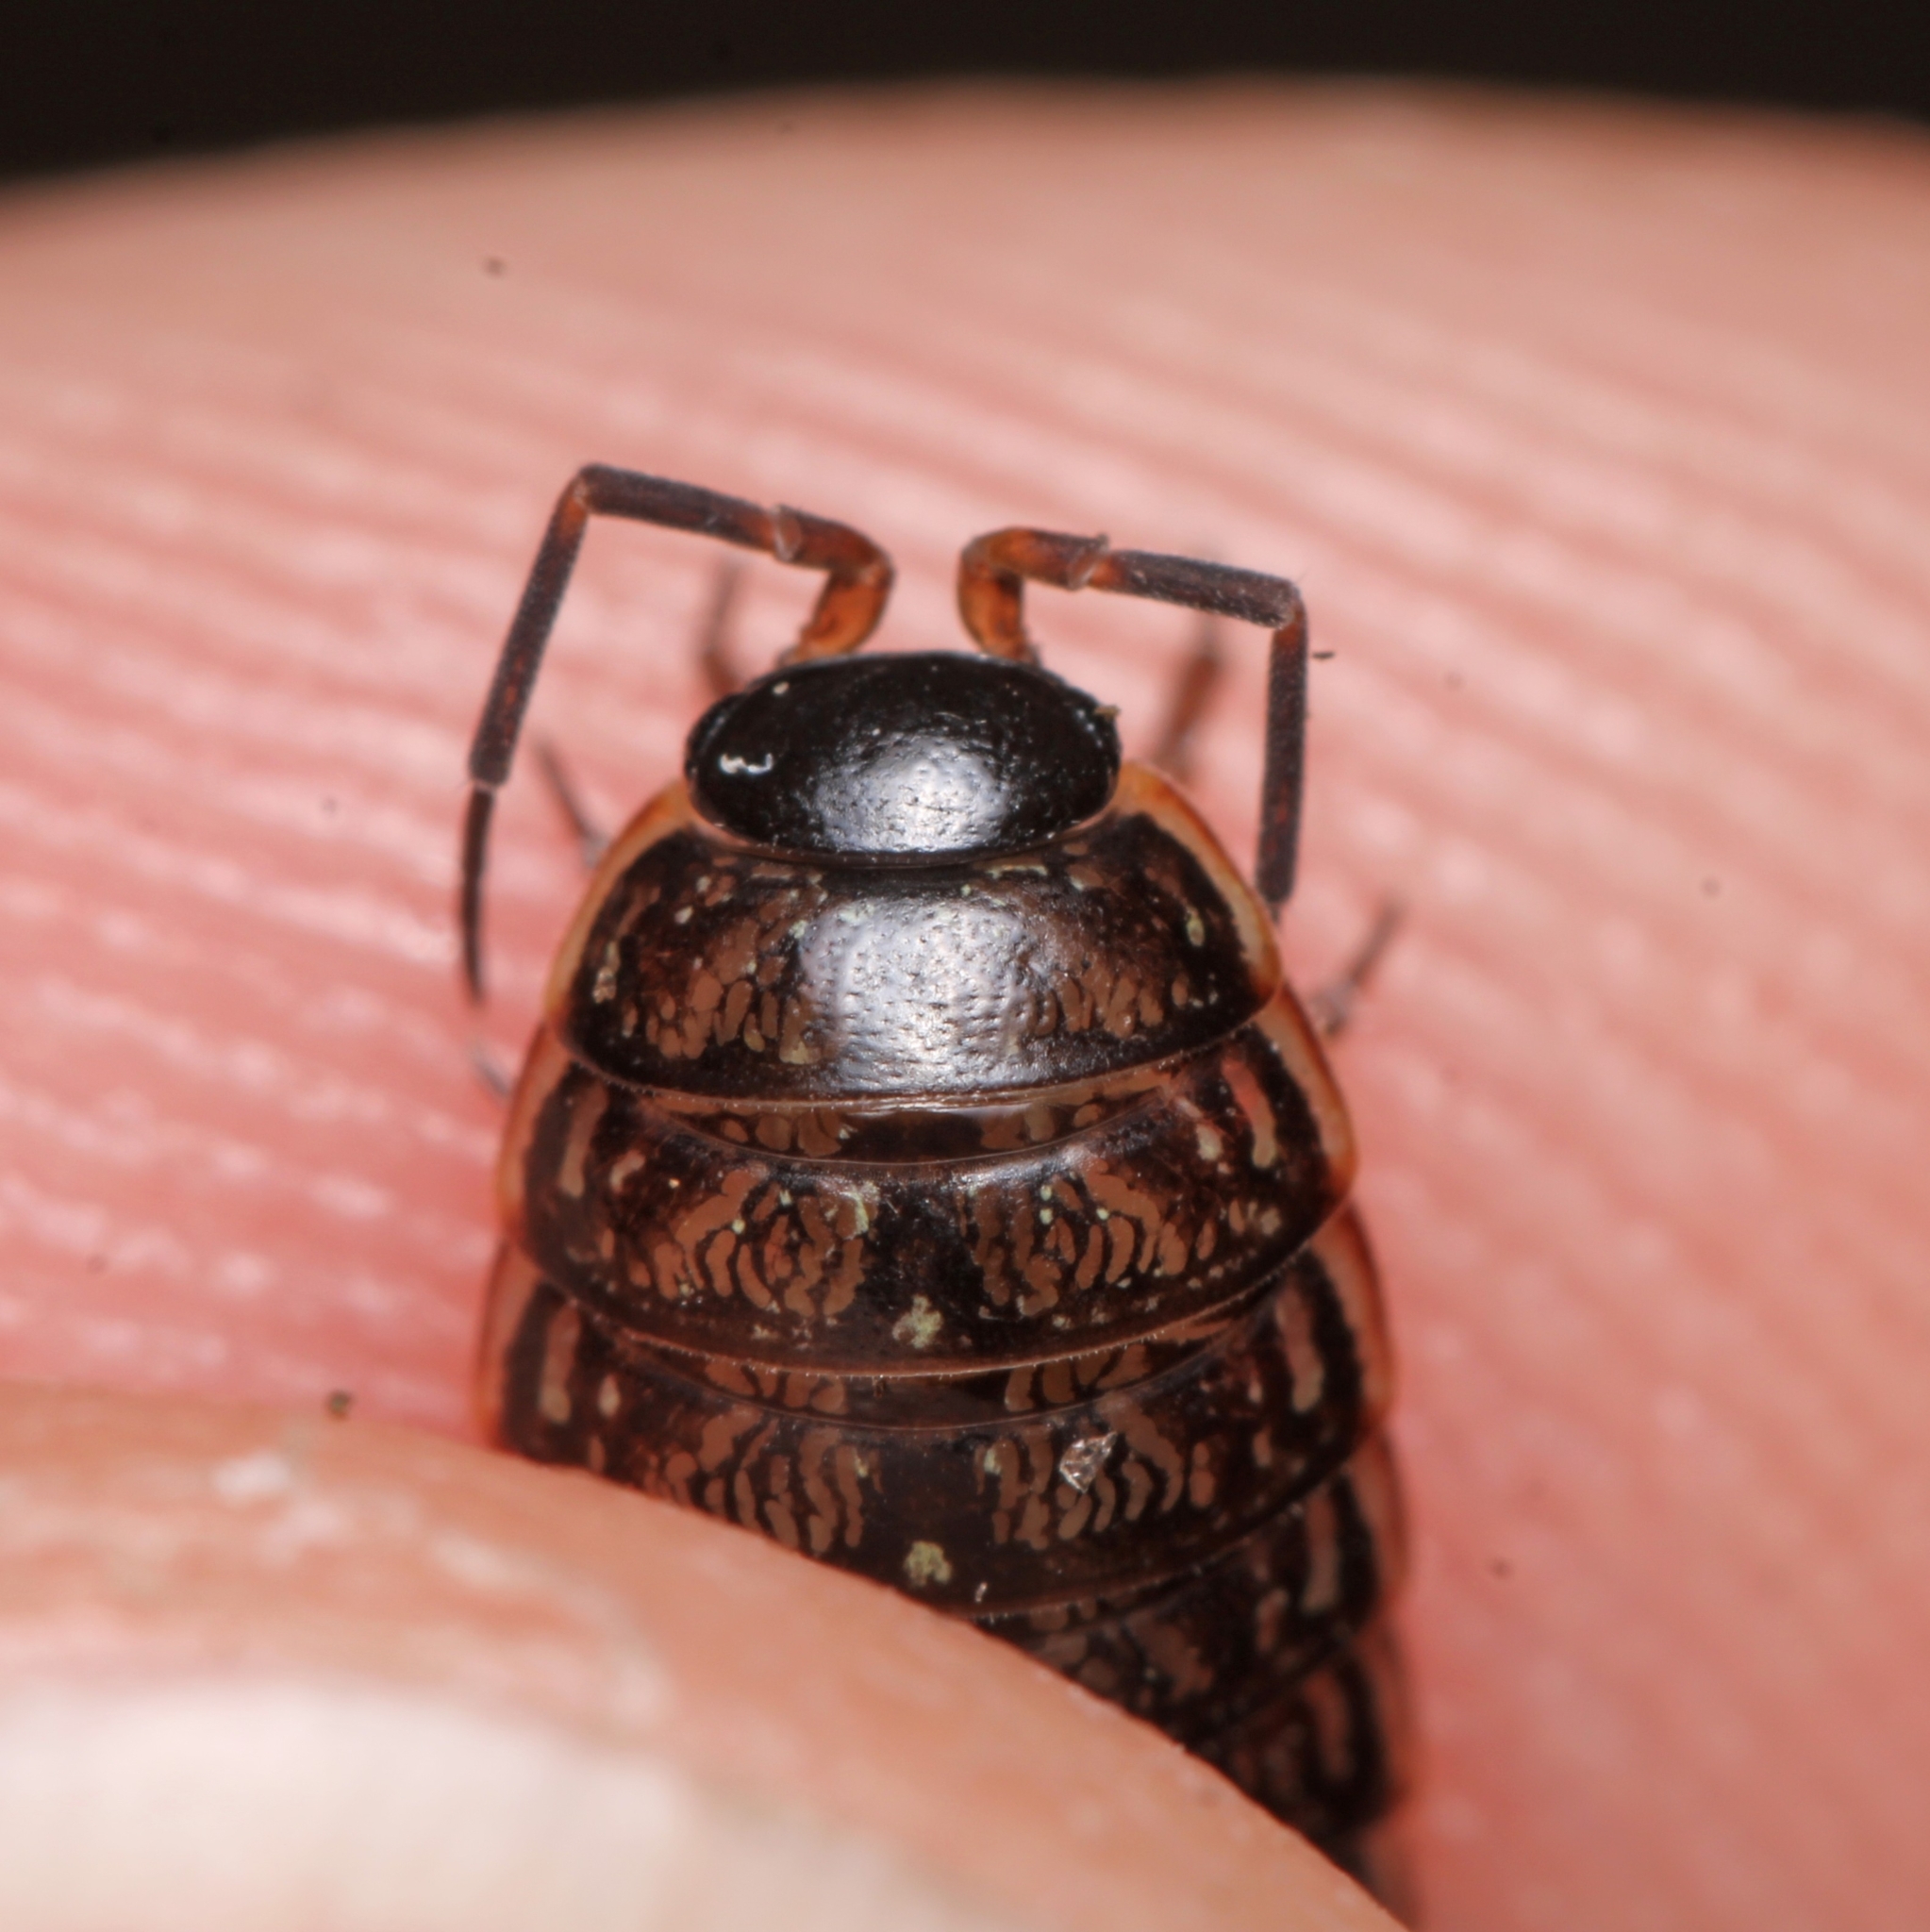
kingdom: Animalia
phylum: Arthropoda
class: Malacostraca
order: Isopoda
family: Philosciidae
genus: Philoscia
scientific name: Philoscia muscorum
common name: Common striped woodlouse
